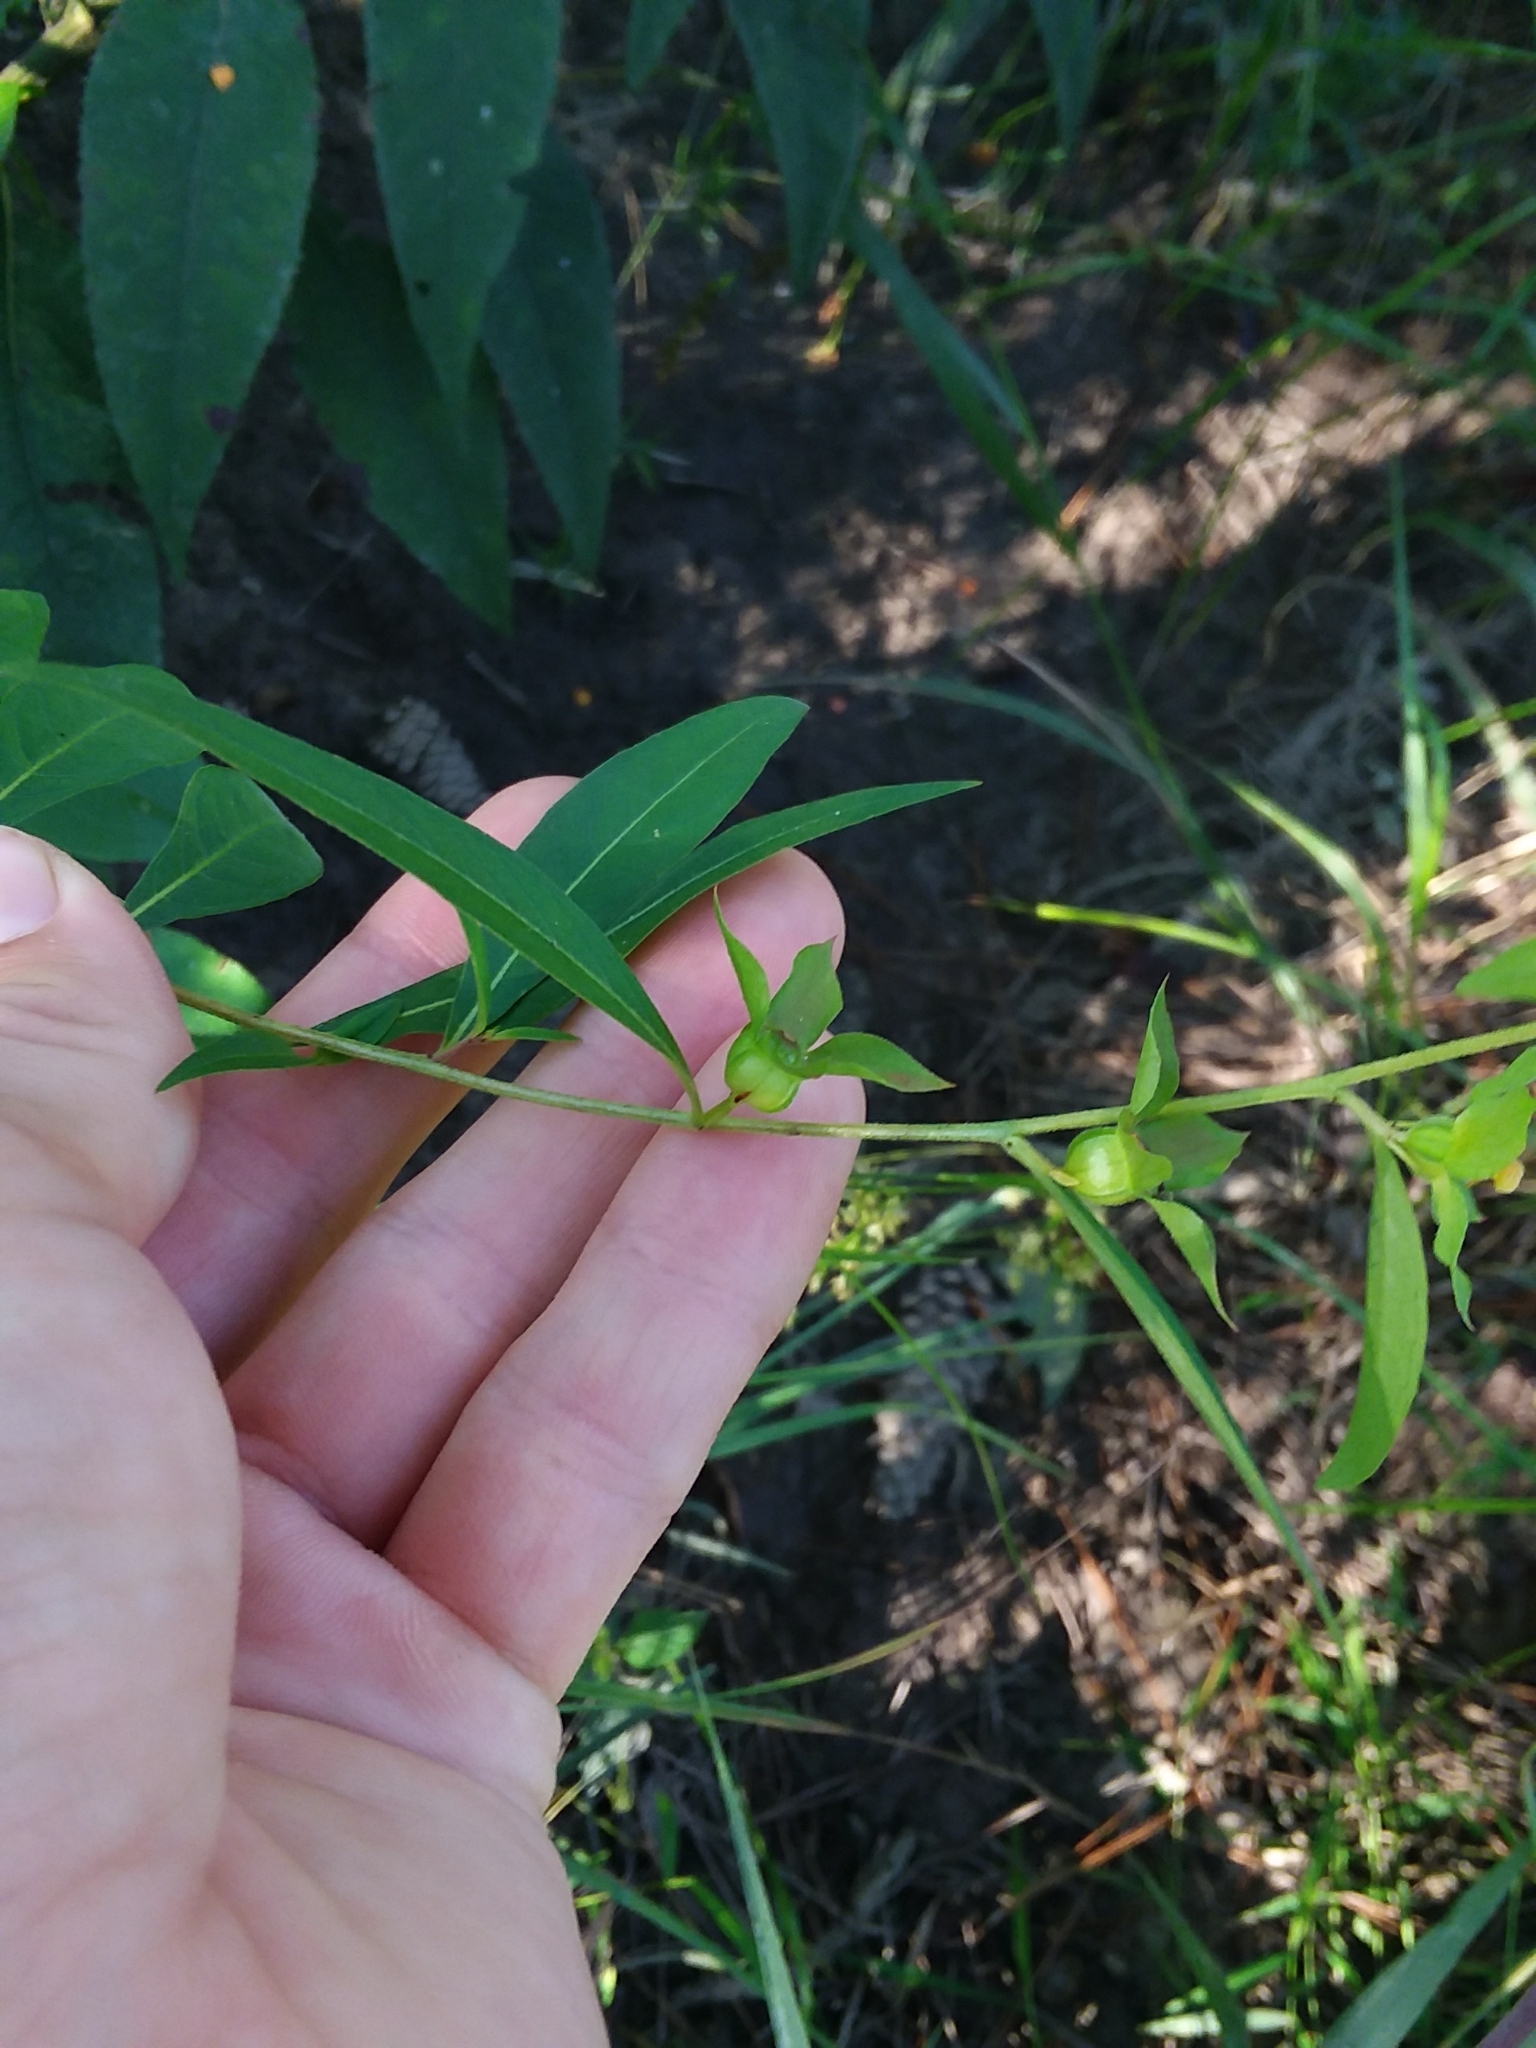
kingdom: Plantae
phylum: Tracheophyta
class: Magnoliopsida
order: Myrtales
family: Onagraceae
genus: Ludwigia
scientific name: Ludwigia alternifolia
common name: Rattlebox
